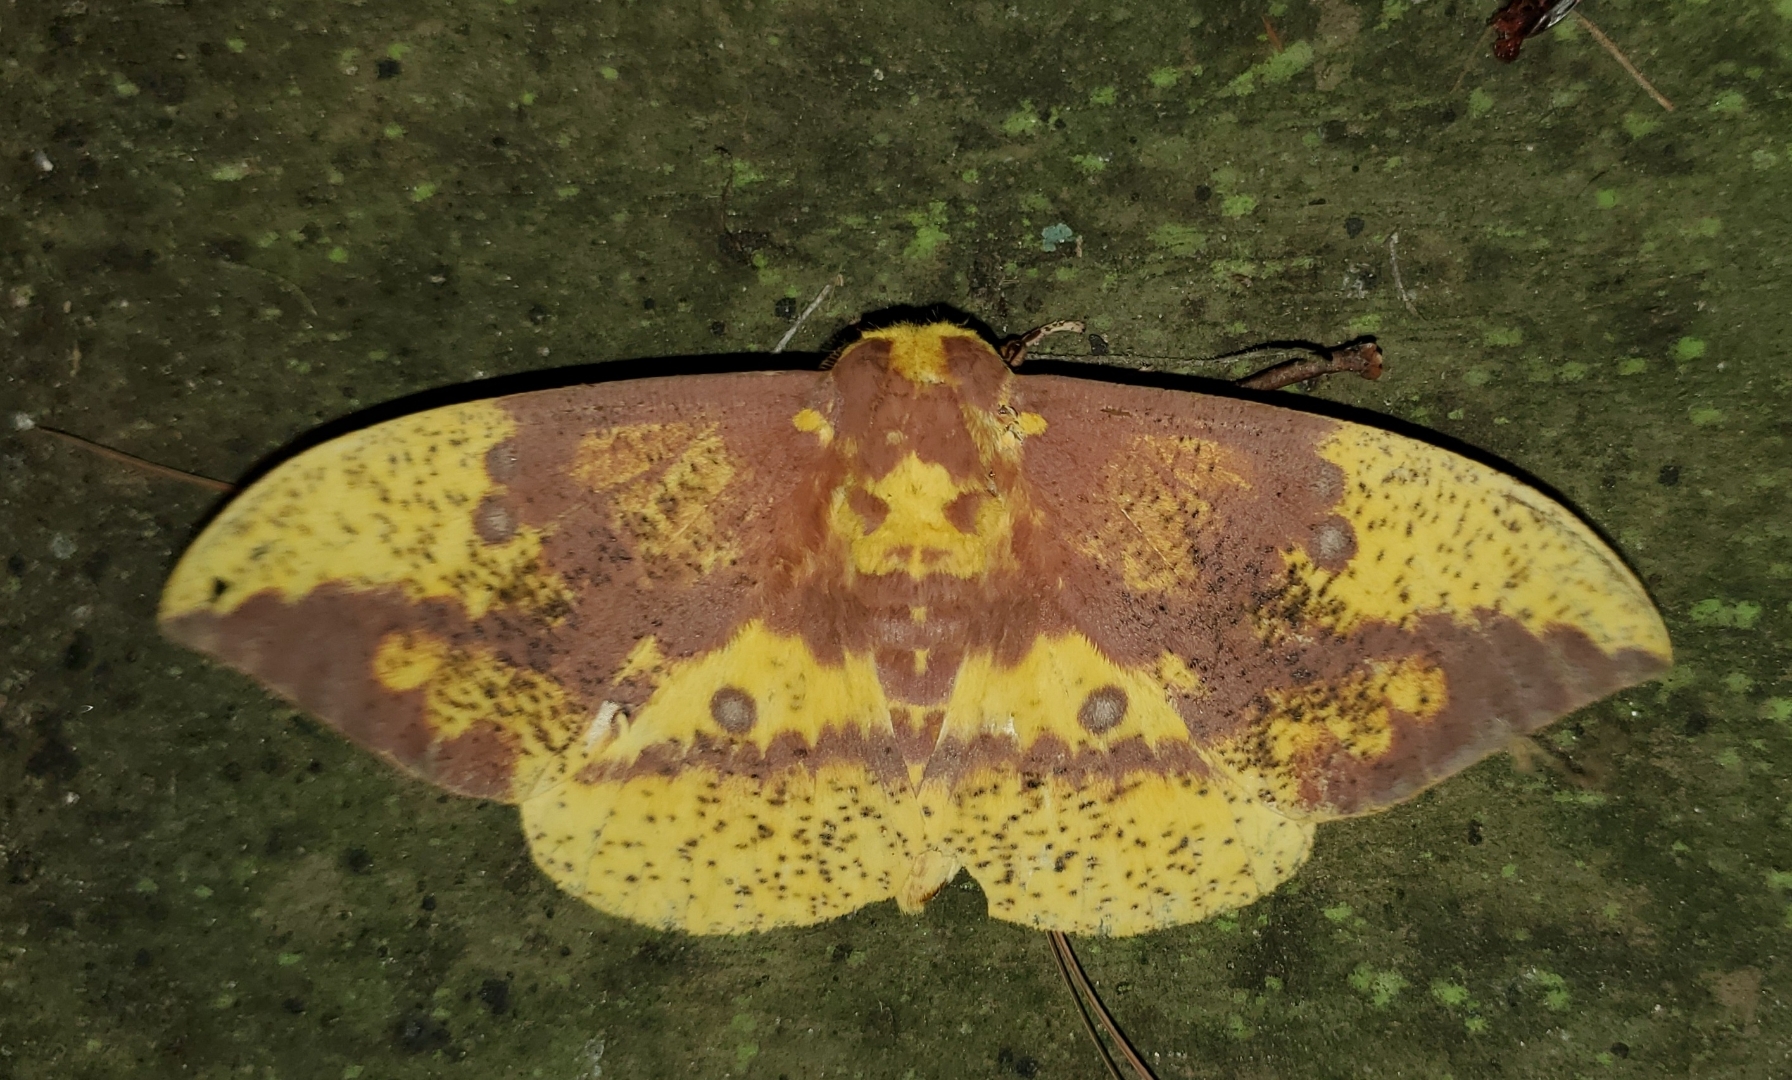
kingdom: Animalia
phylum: Arthropoda
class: Insecta
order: Lepidoptera
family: Saturniidae
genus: Eacles
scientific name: Eacles imperialis
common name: Imperial moth
